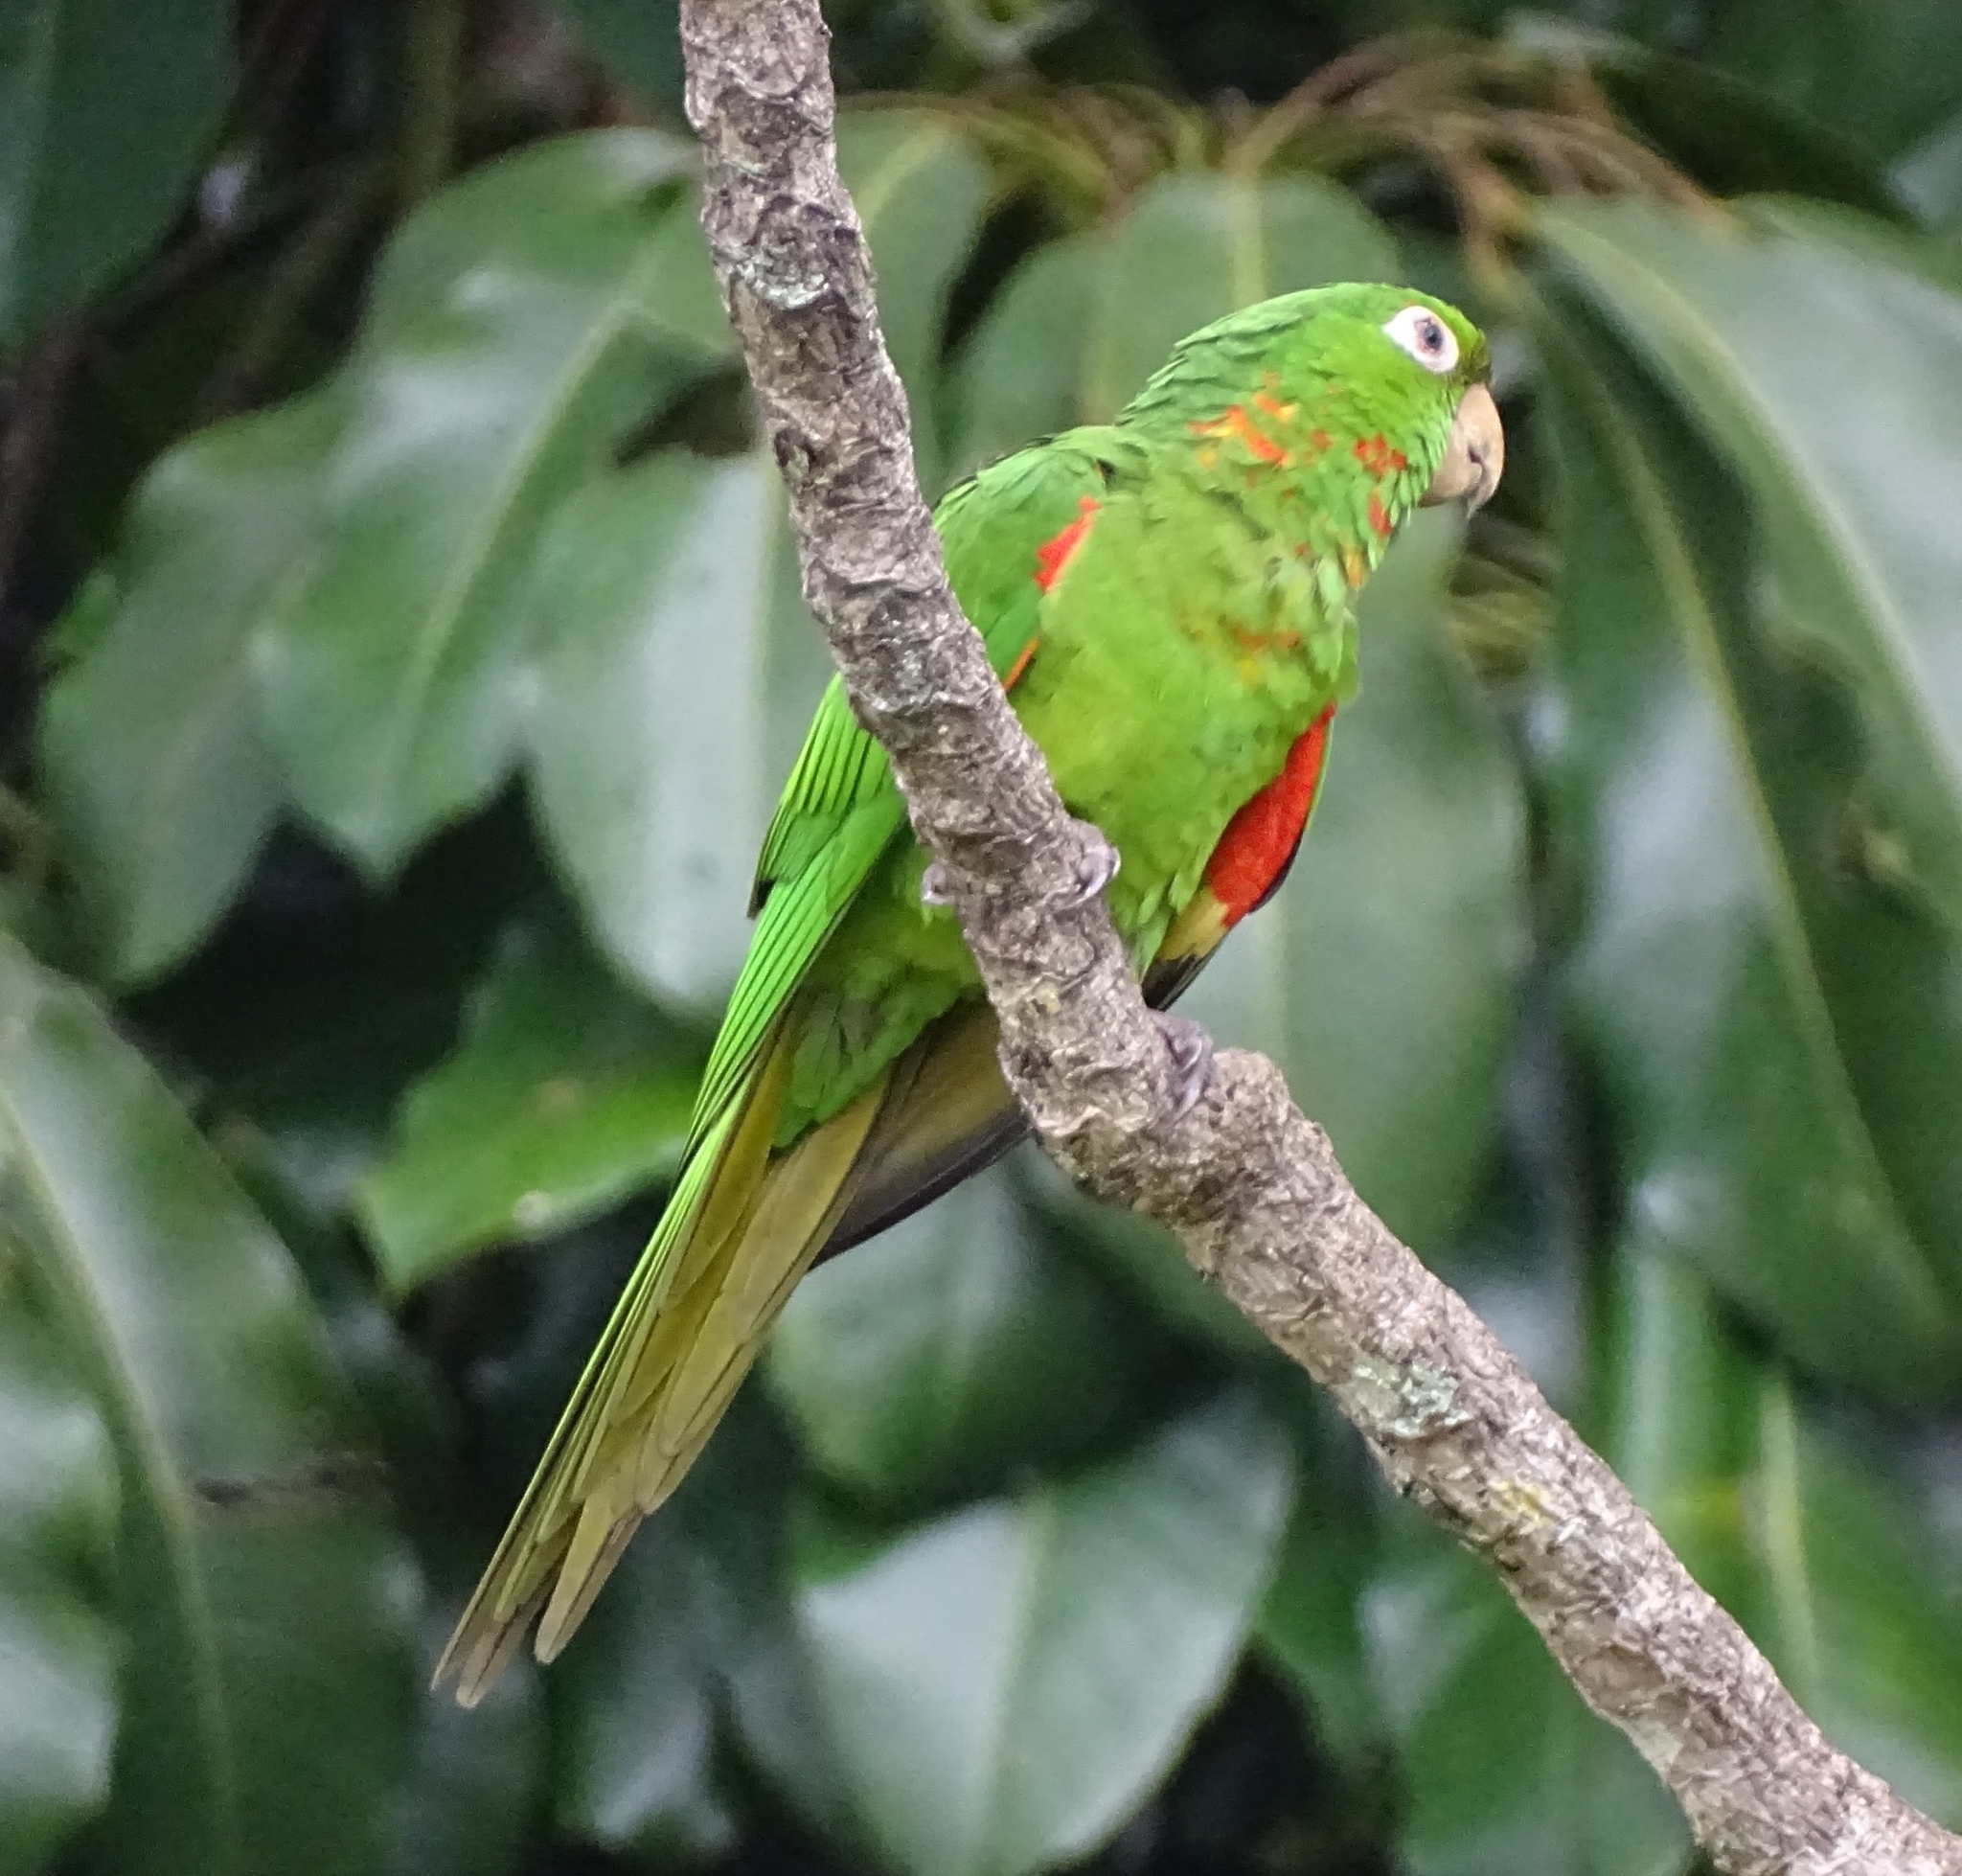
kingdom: Animalia
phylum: Chordata
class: Aves
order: Psittaciformes
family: Psittacidae
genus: Aratinga
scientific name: Aratinga leucophthalma
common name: White-eyed parakeet
